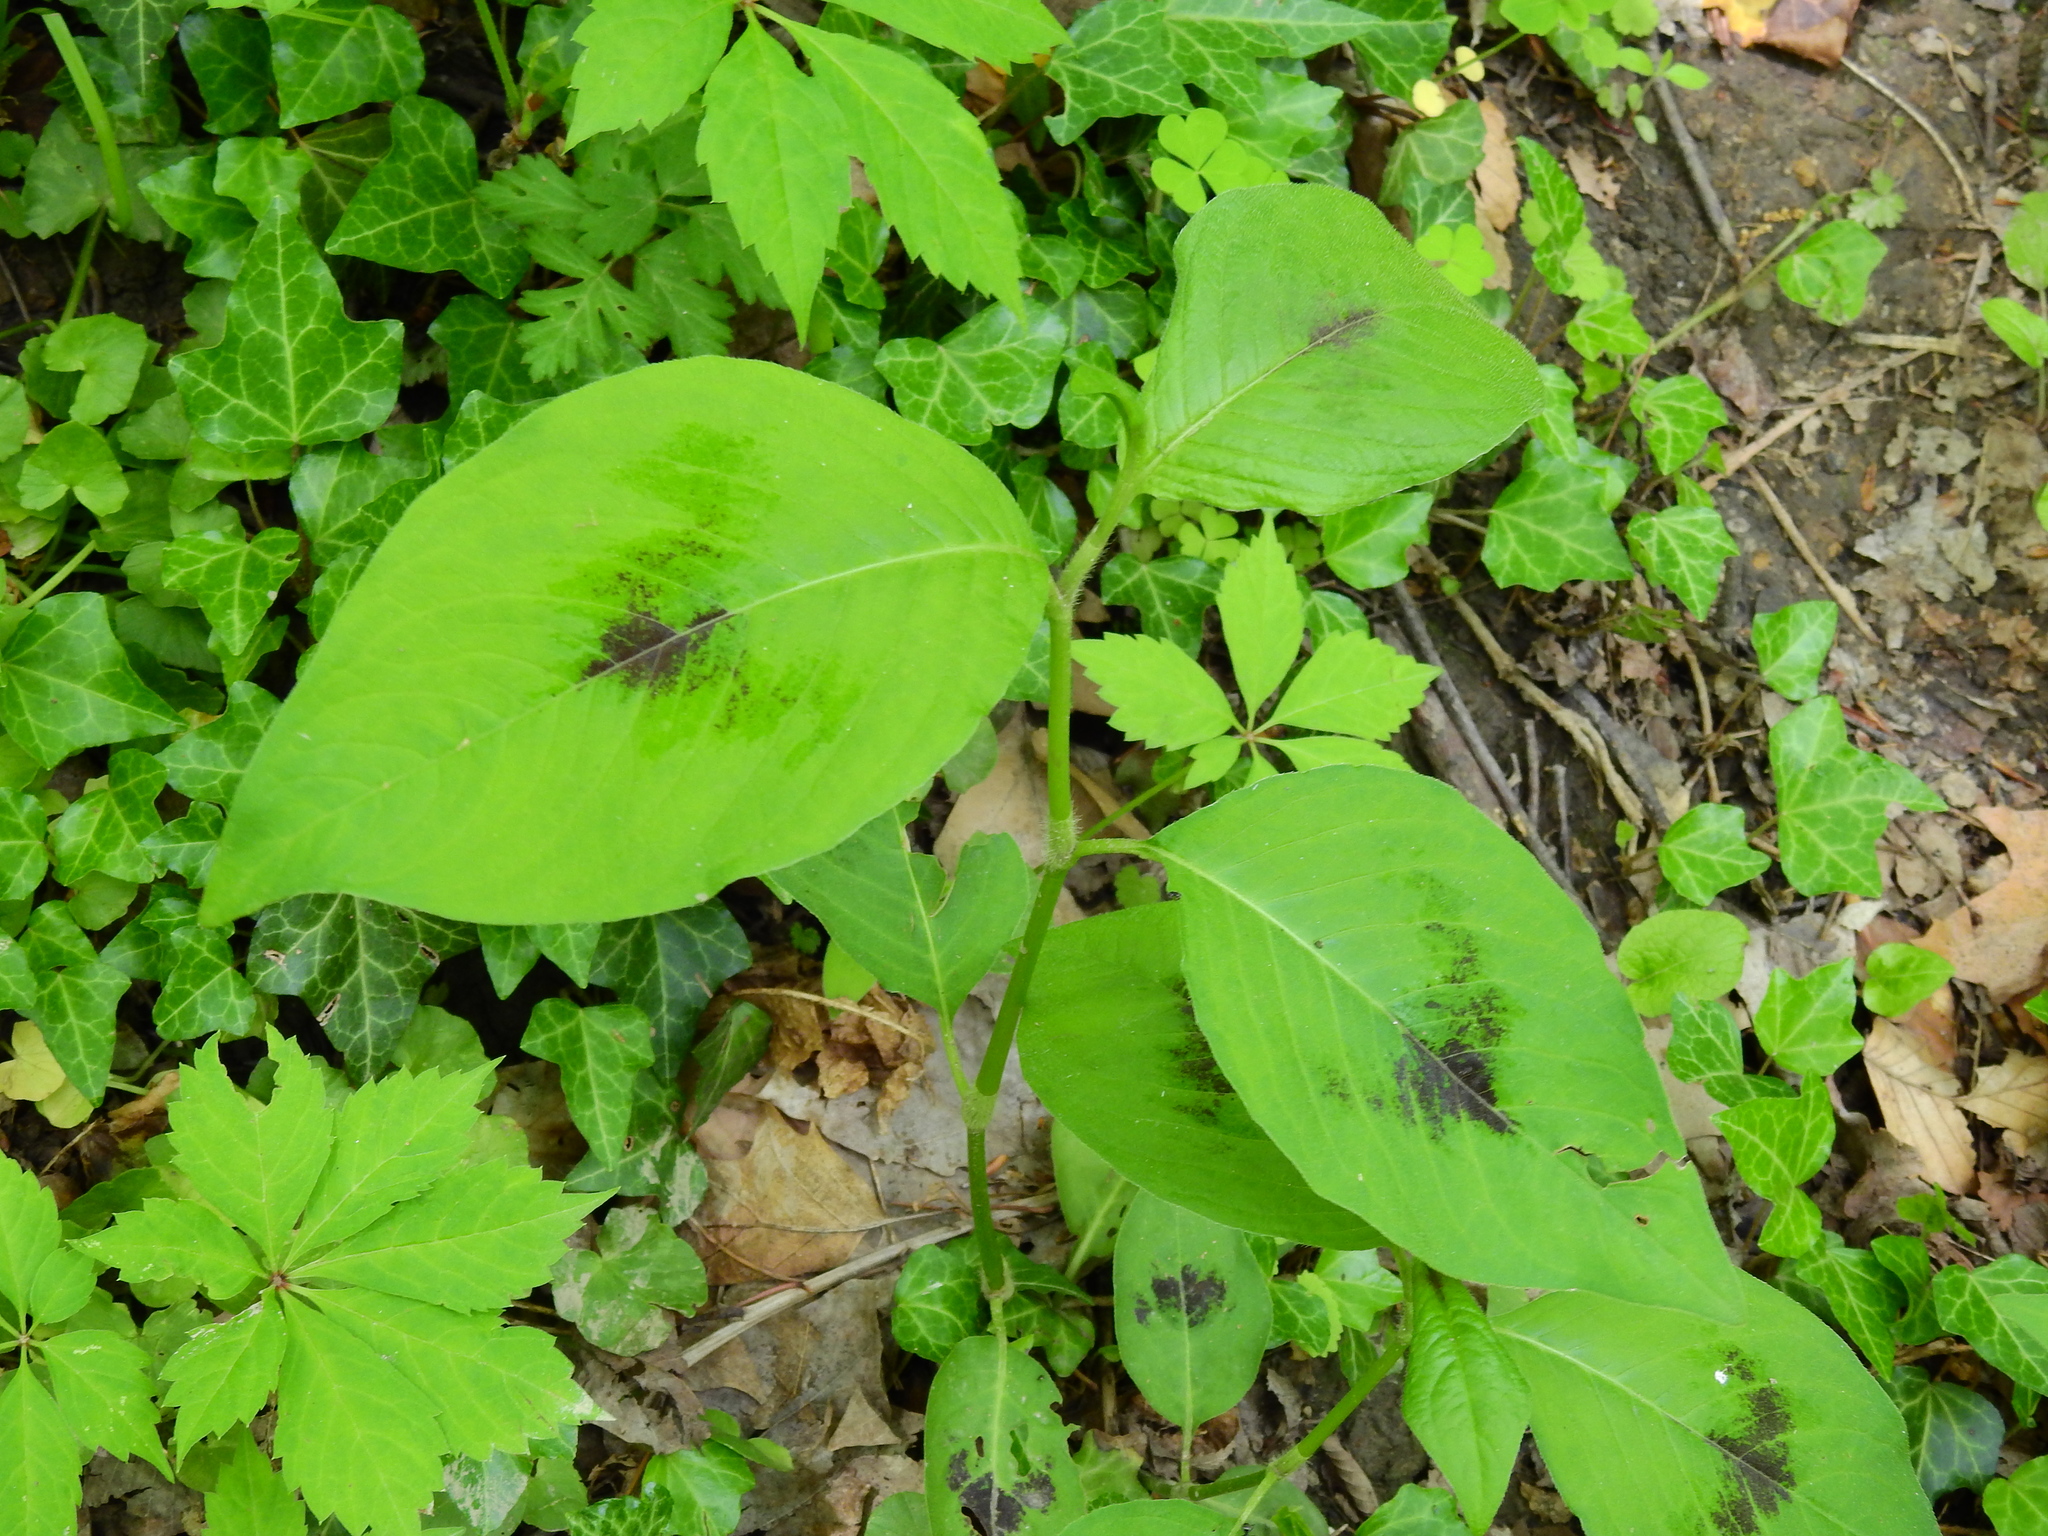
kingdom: Plantae
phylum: Tracheophyta
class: Magnoliopsida
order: Caryophyllales
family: Polygonaceae
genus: Persicaria
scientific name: Persicaria virginiana
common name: Jumpseed
